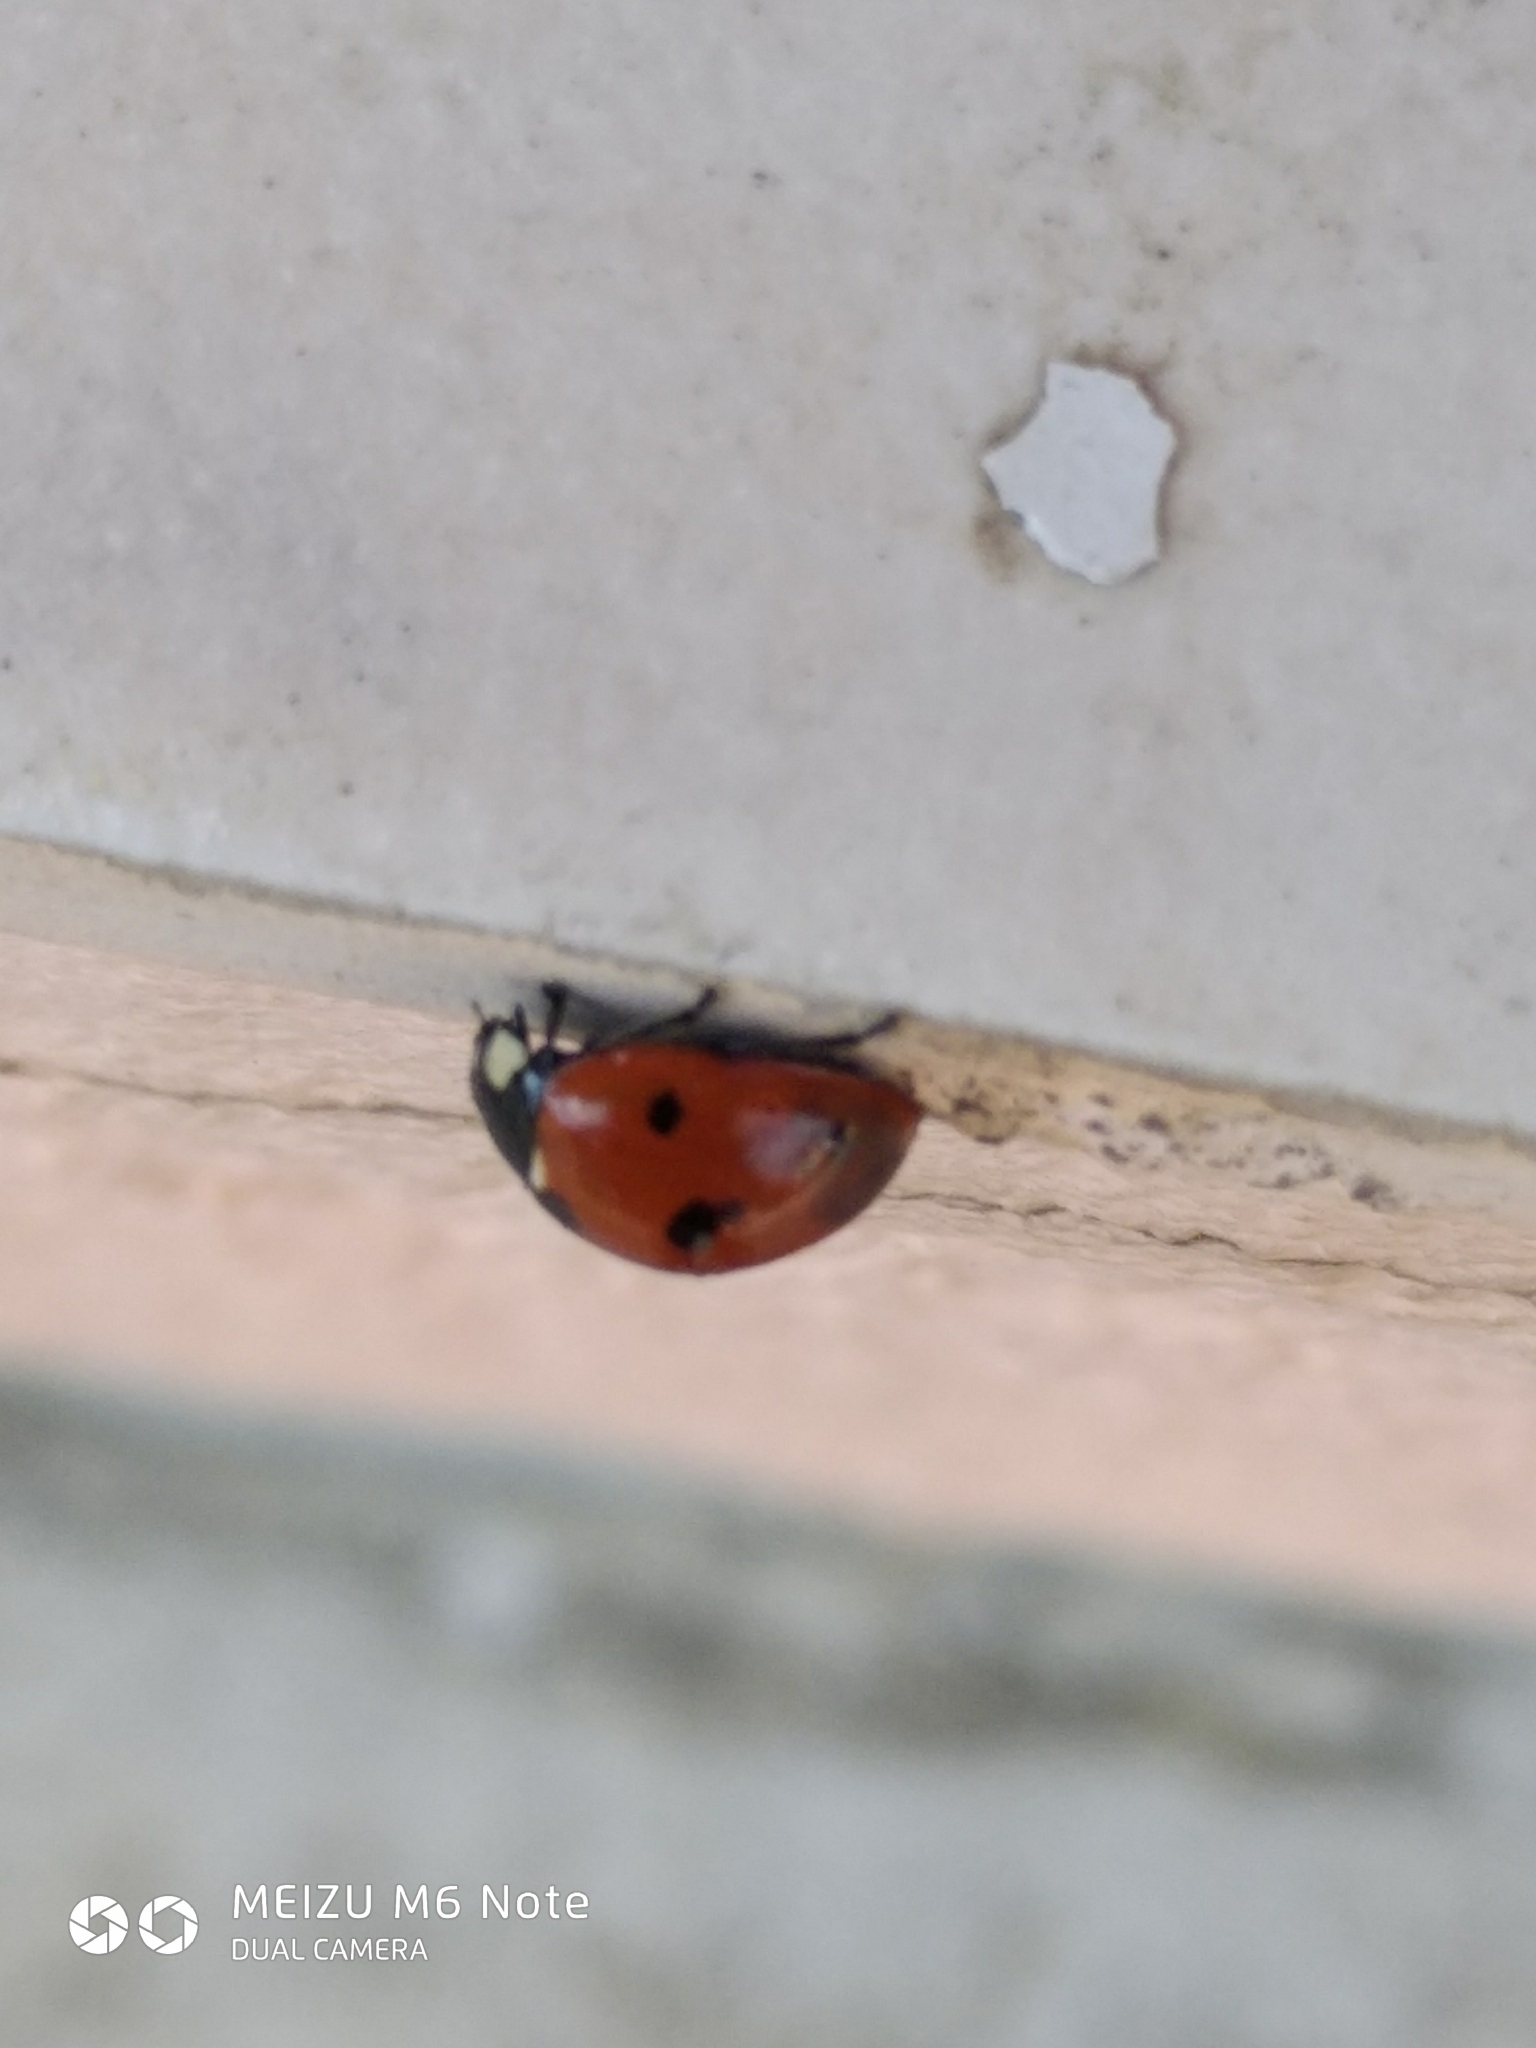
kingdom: Animalia
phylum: Arthropoda
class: Insecta
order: Coleoptera
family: Coccinellidae
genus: Coccinella
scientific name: Coccinella septempunctata
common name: Sevenspotted lady beetle
